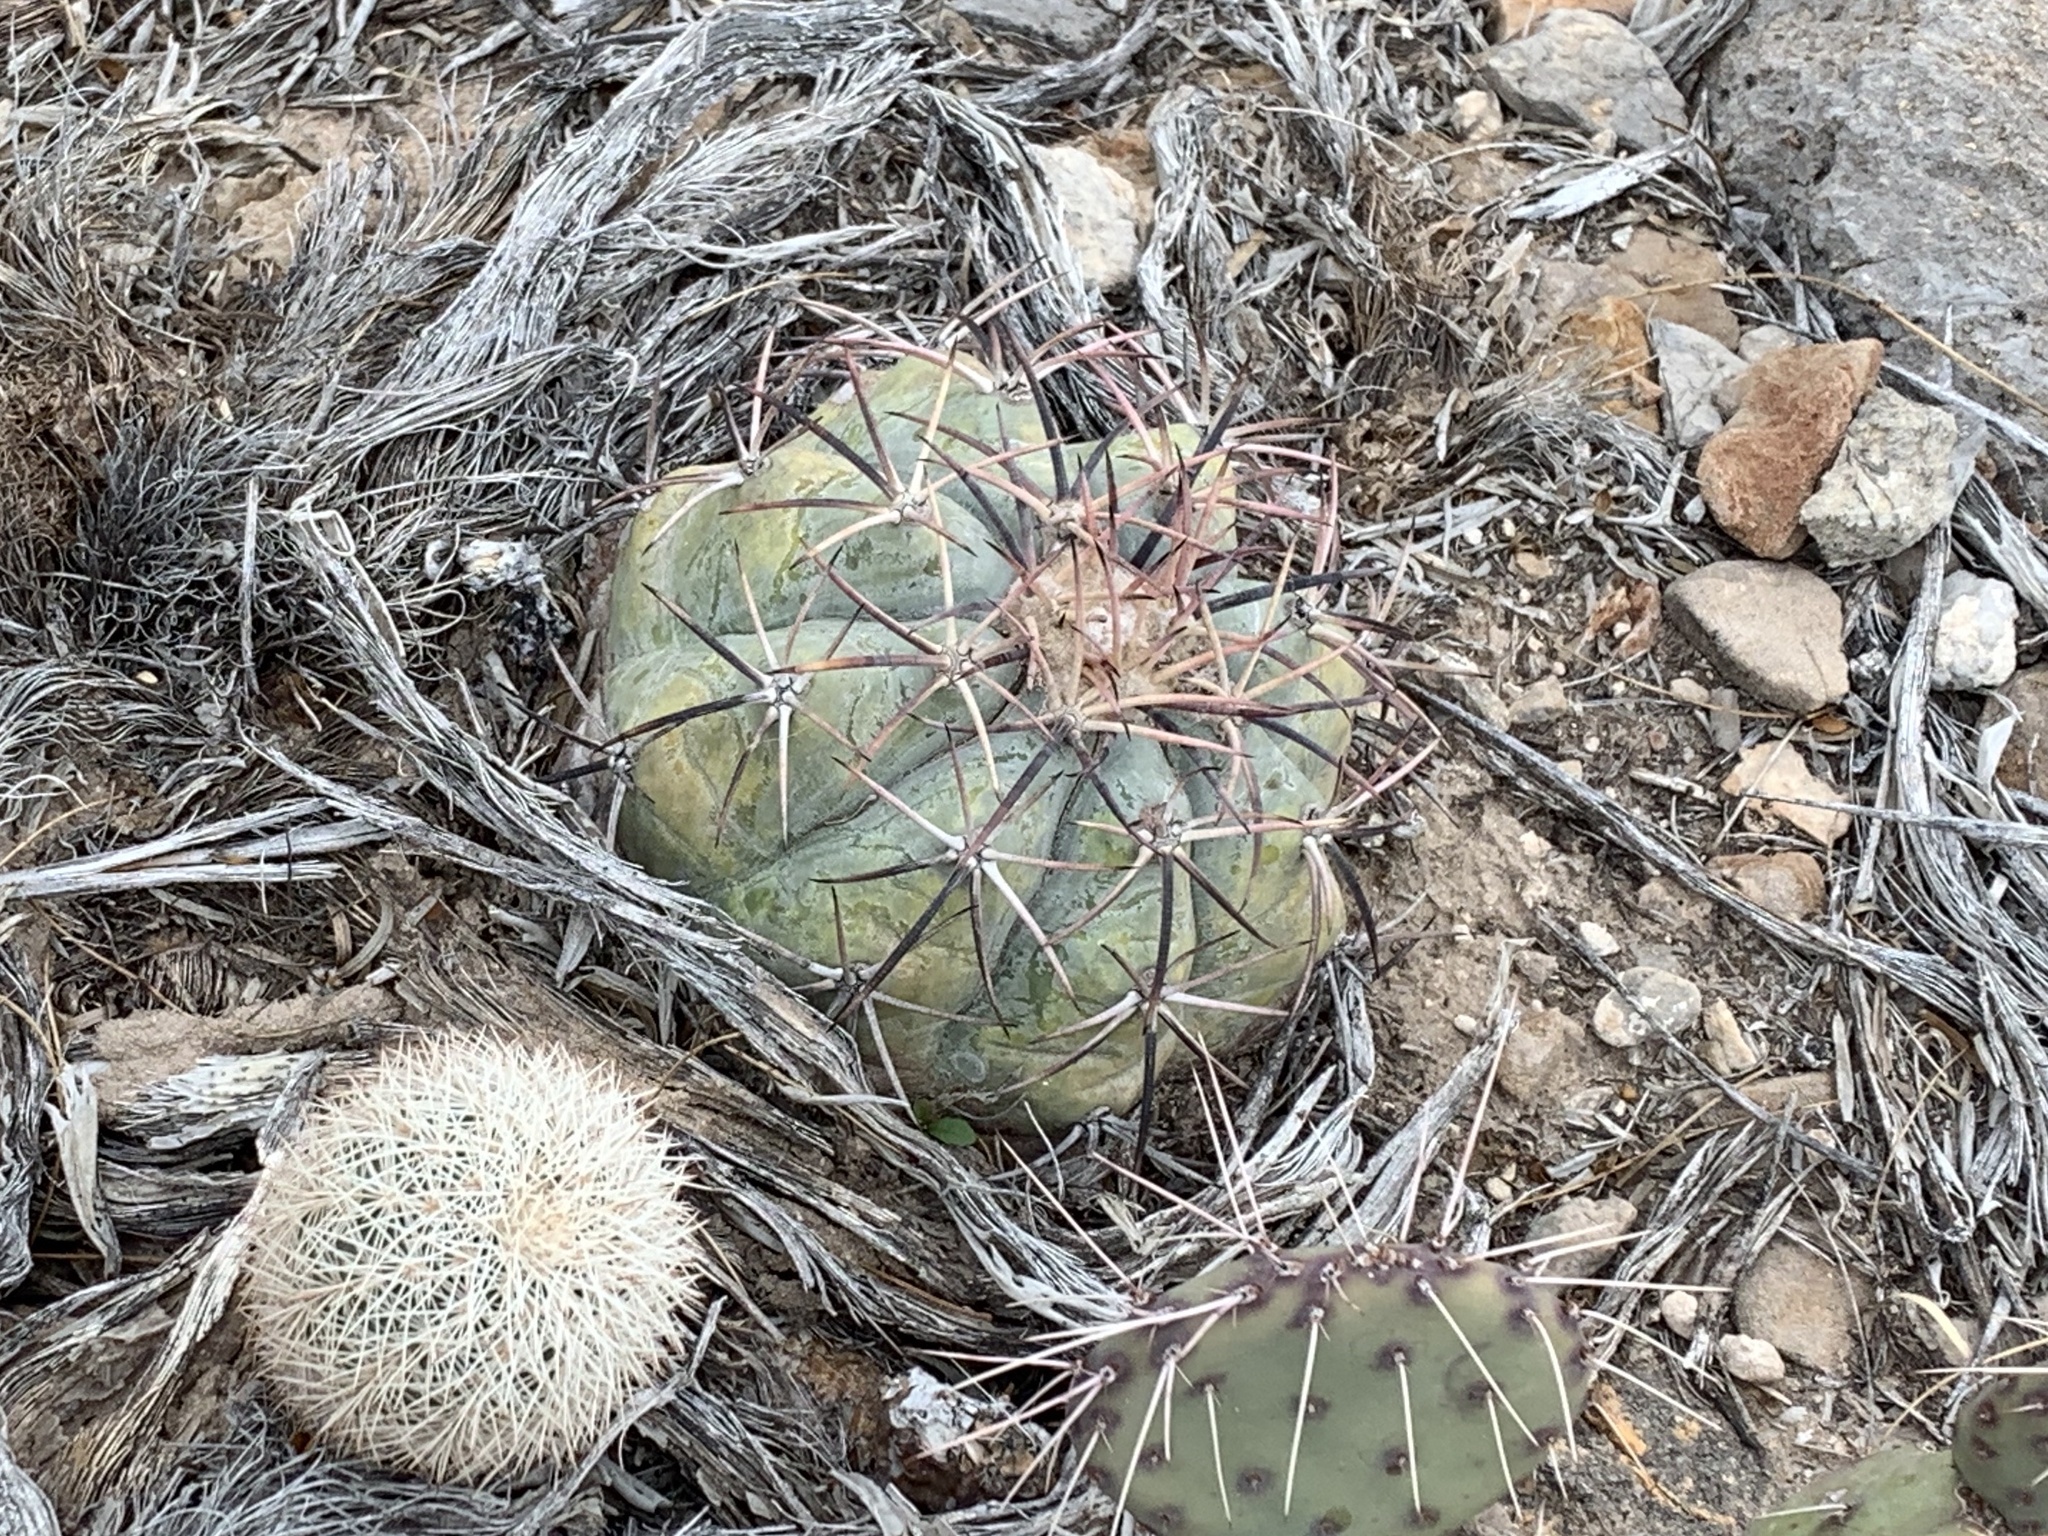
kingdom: Plantae
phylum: Tracheophyta
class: Magnoliopsida
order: Caryophyllales
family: Cactaceae
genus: Echinocactus
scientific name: Echinocactus horizonthalonius
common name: Devilshead
